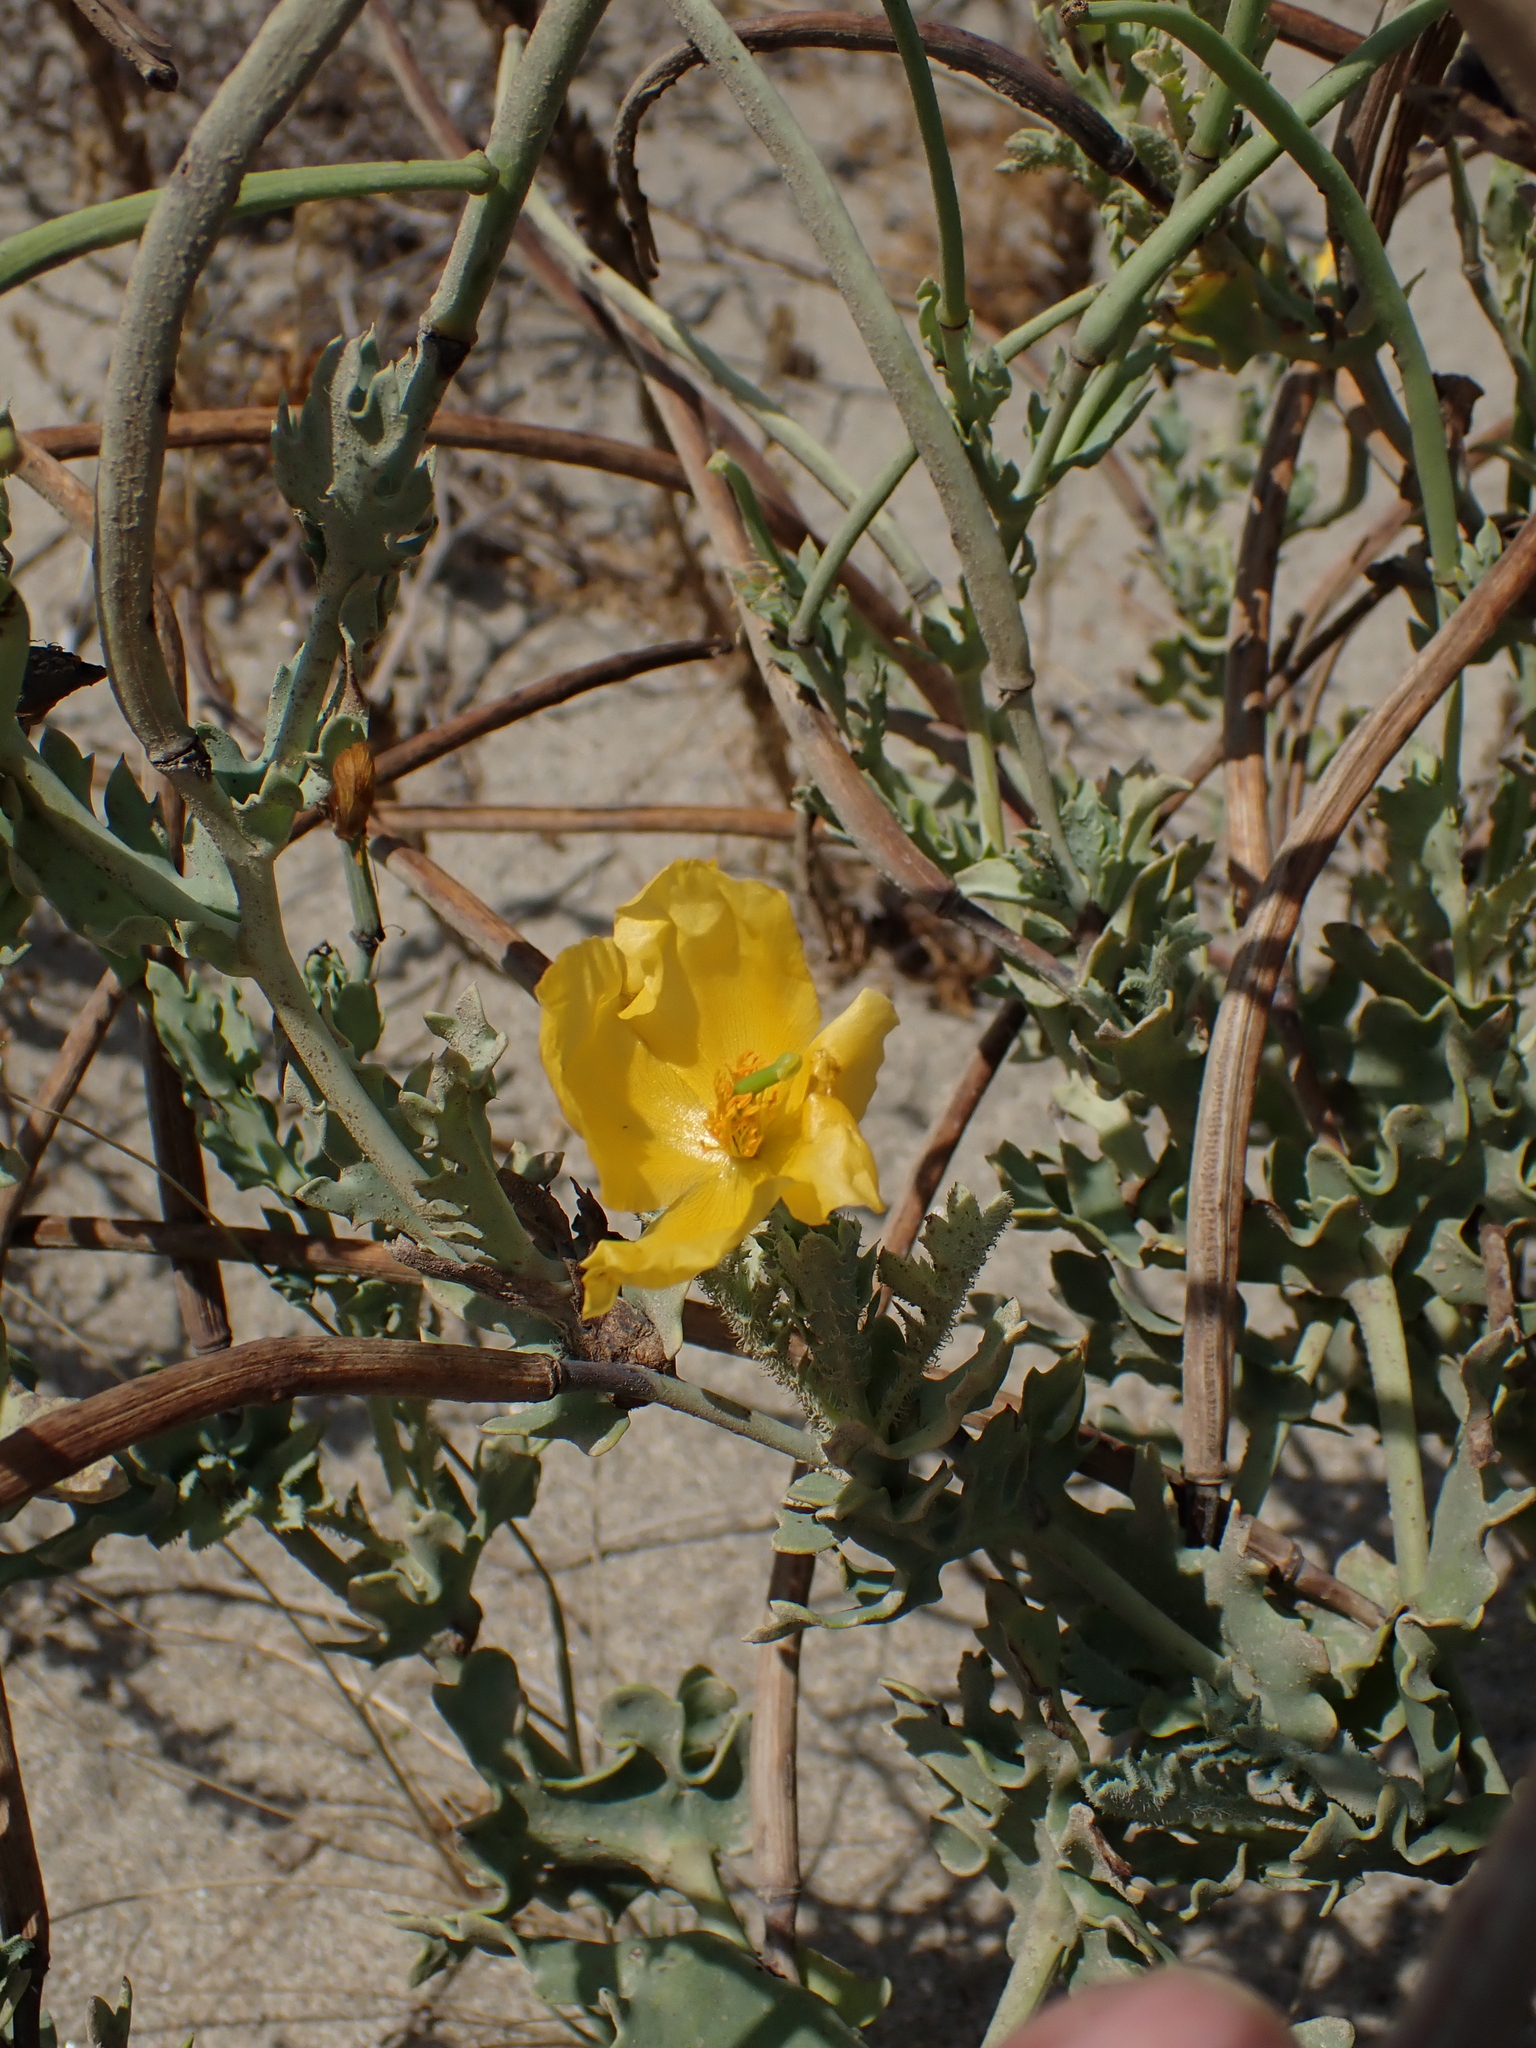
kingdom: Plantae
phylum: Tracheophyta
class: Magnoliopsida
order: Ranunculales
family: Papaveraceae
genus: Glaucium
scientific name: Glaucium flavum
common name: Yellow horned-poppy
